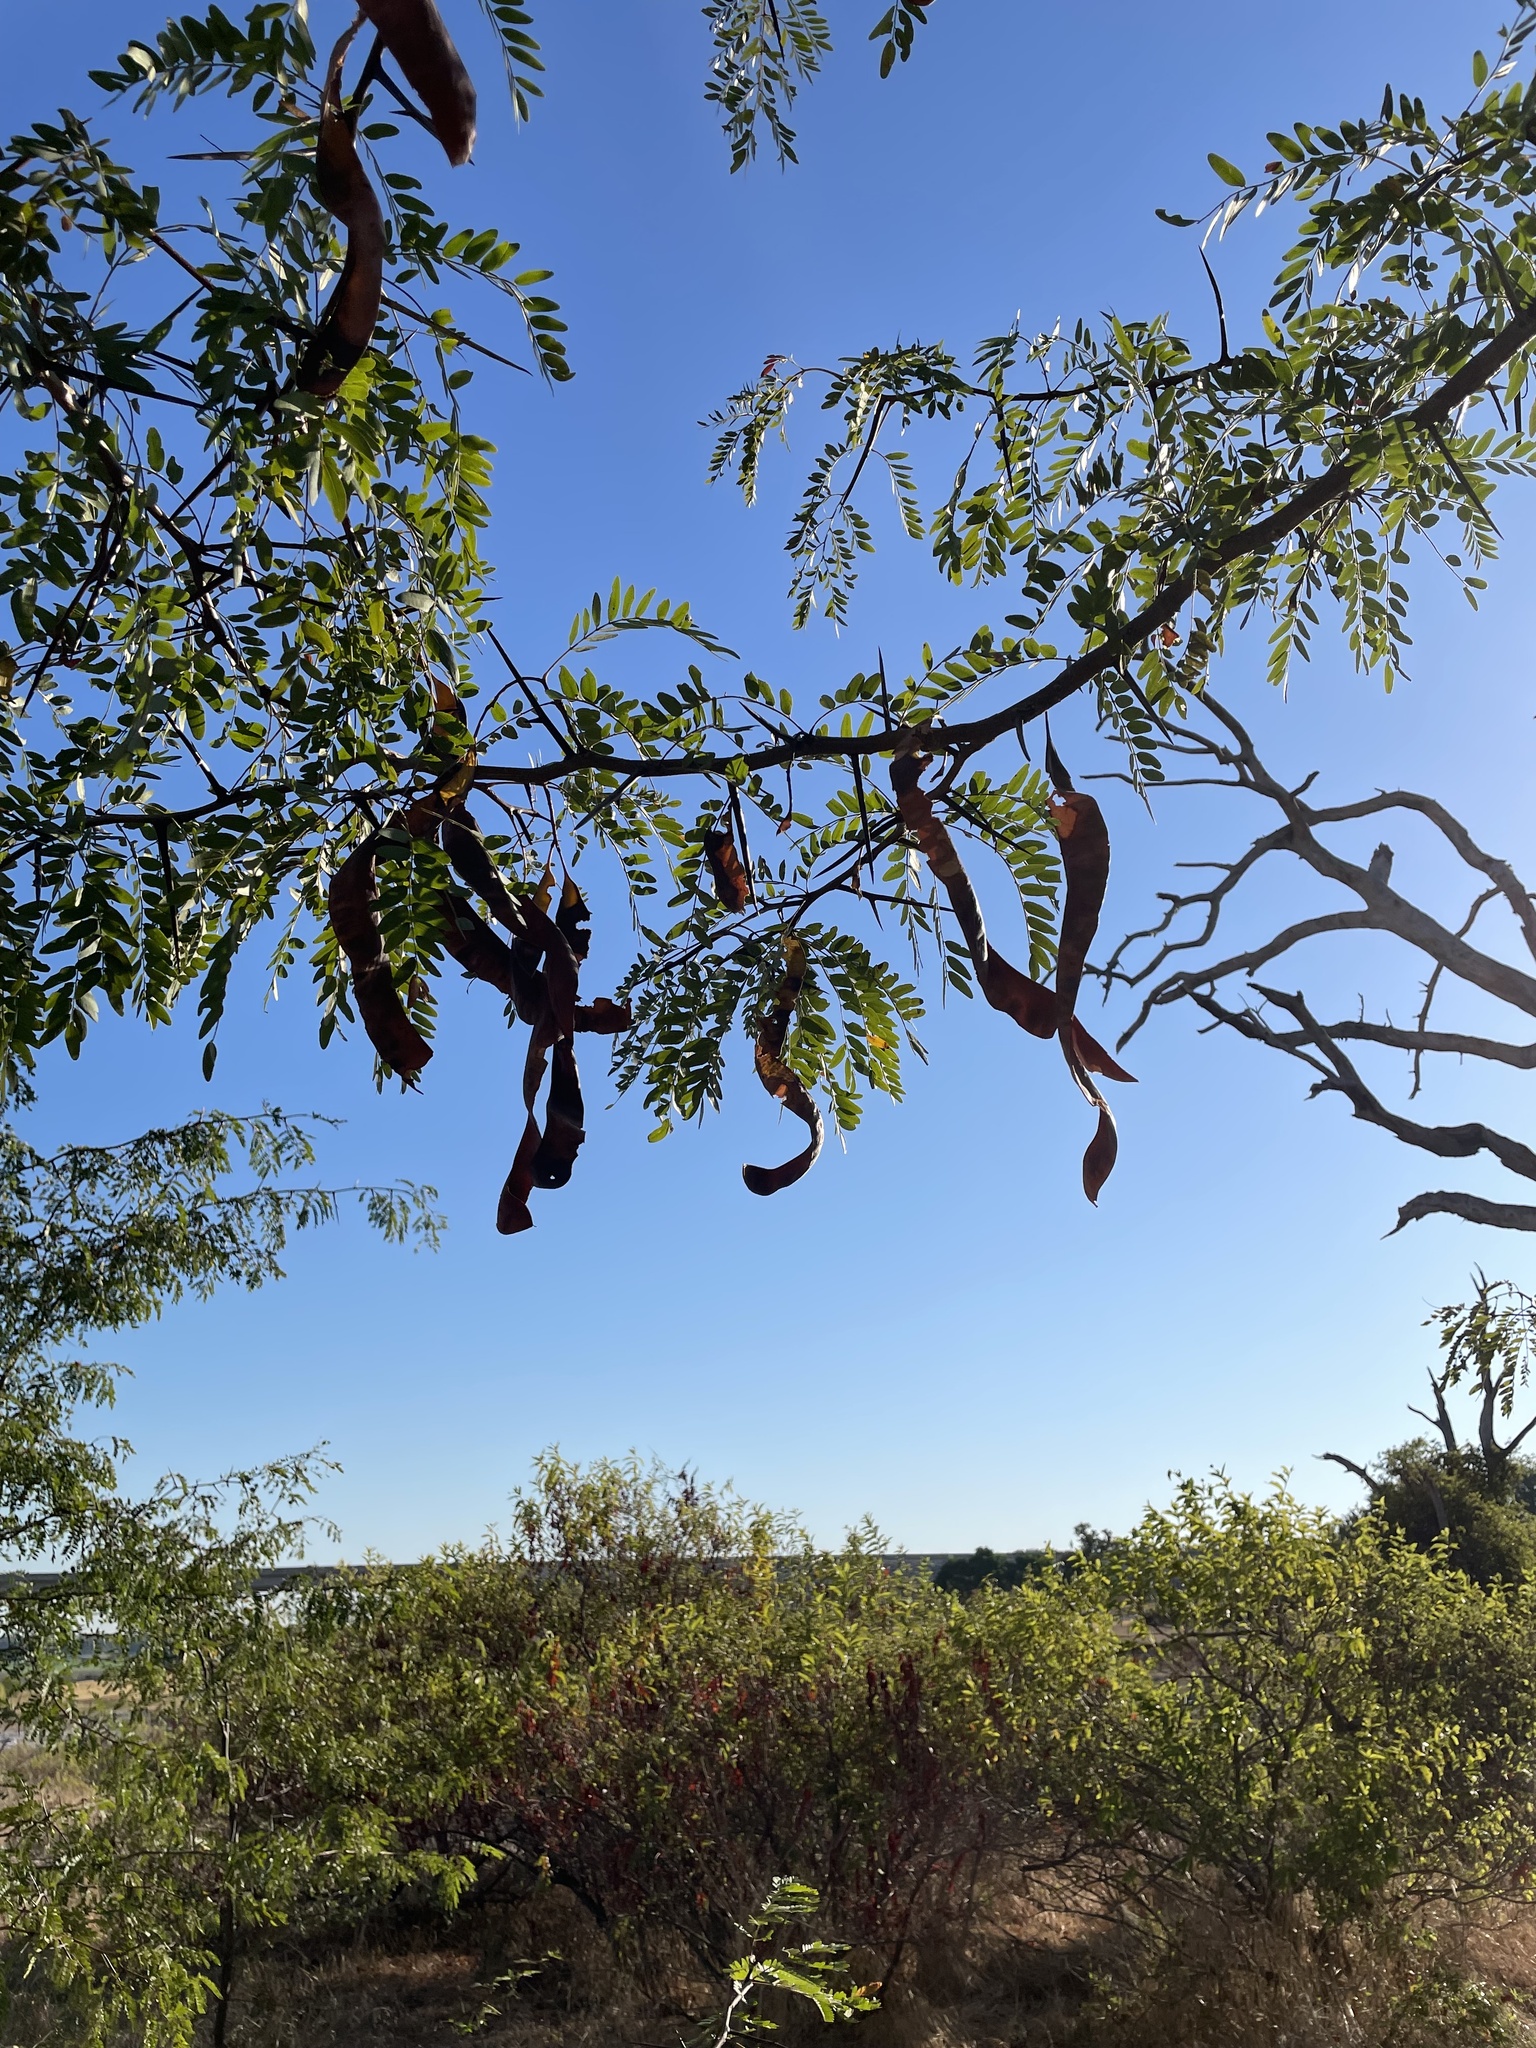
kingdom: Plantae
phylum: Tracheophyta
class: Magnoliopsida
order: Fabales
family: Fabaceae
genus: Gleditsia
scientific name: Gleditsia triacanthos
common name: Common honeylocust
